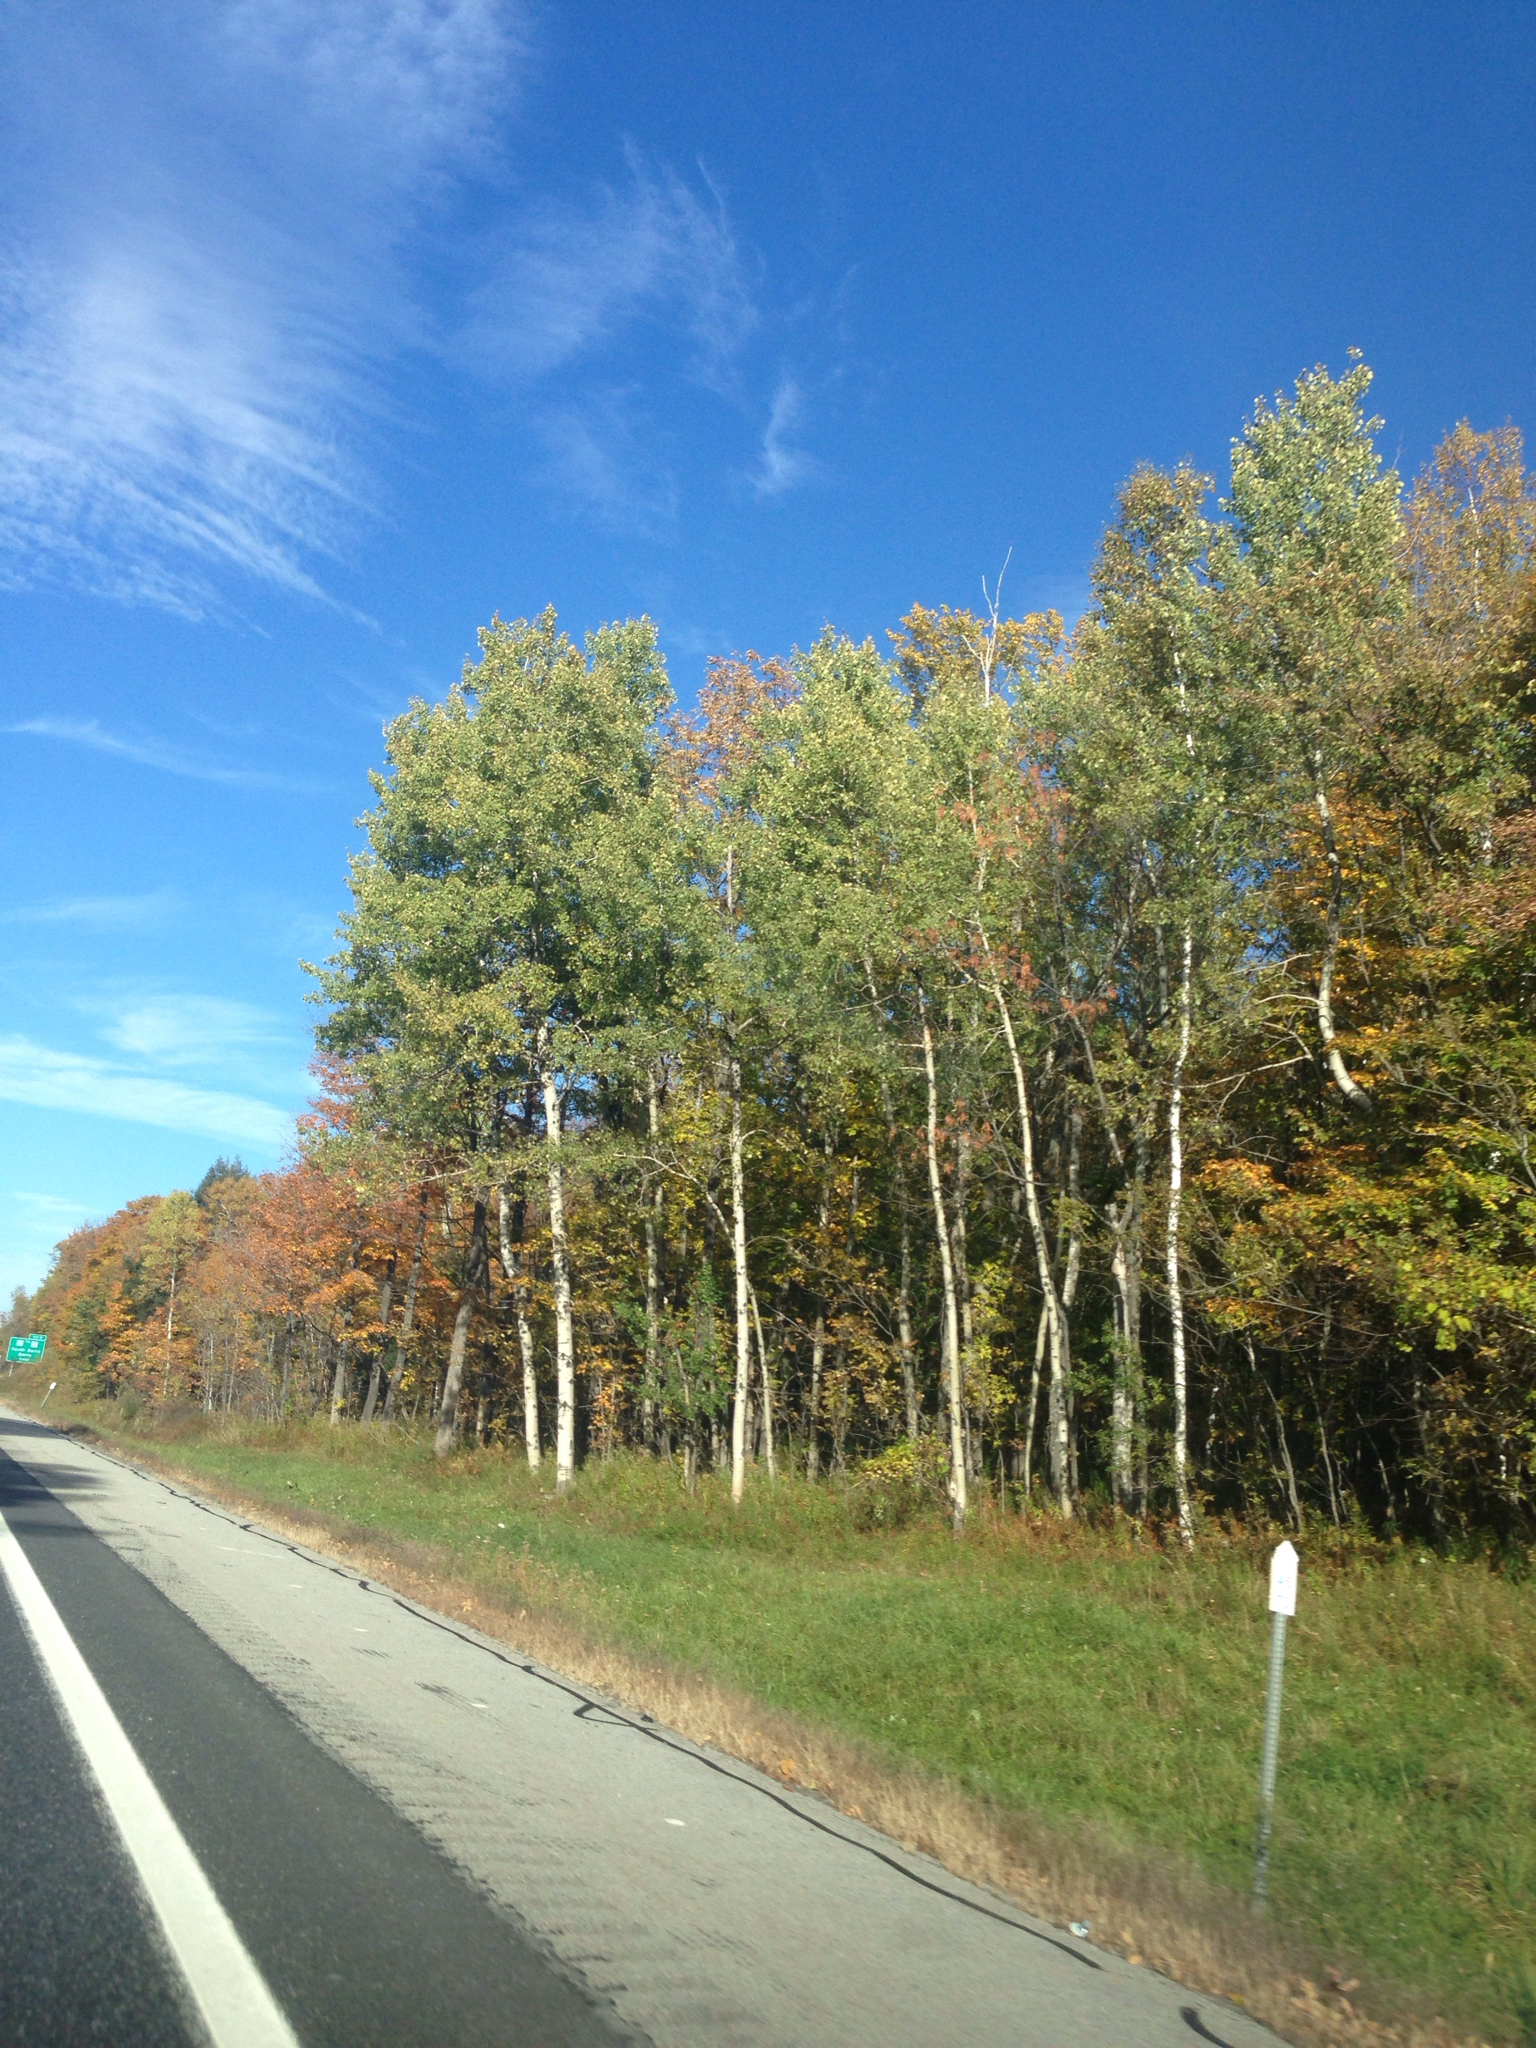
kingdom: Plantae
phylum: Tracheophyta
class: Magnoliopsida
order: Malpighiales
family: Salicaceae
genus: Populus
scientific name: Populus tremuloides
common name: Quaking aspen
